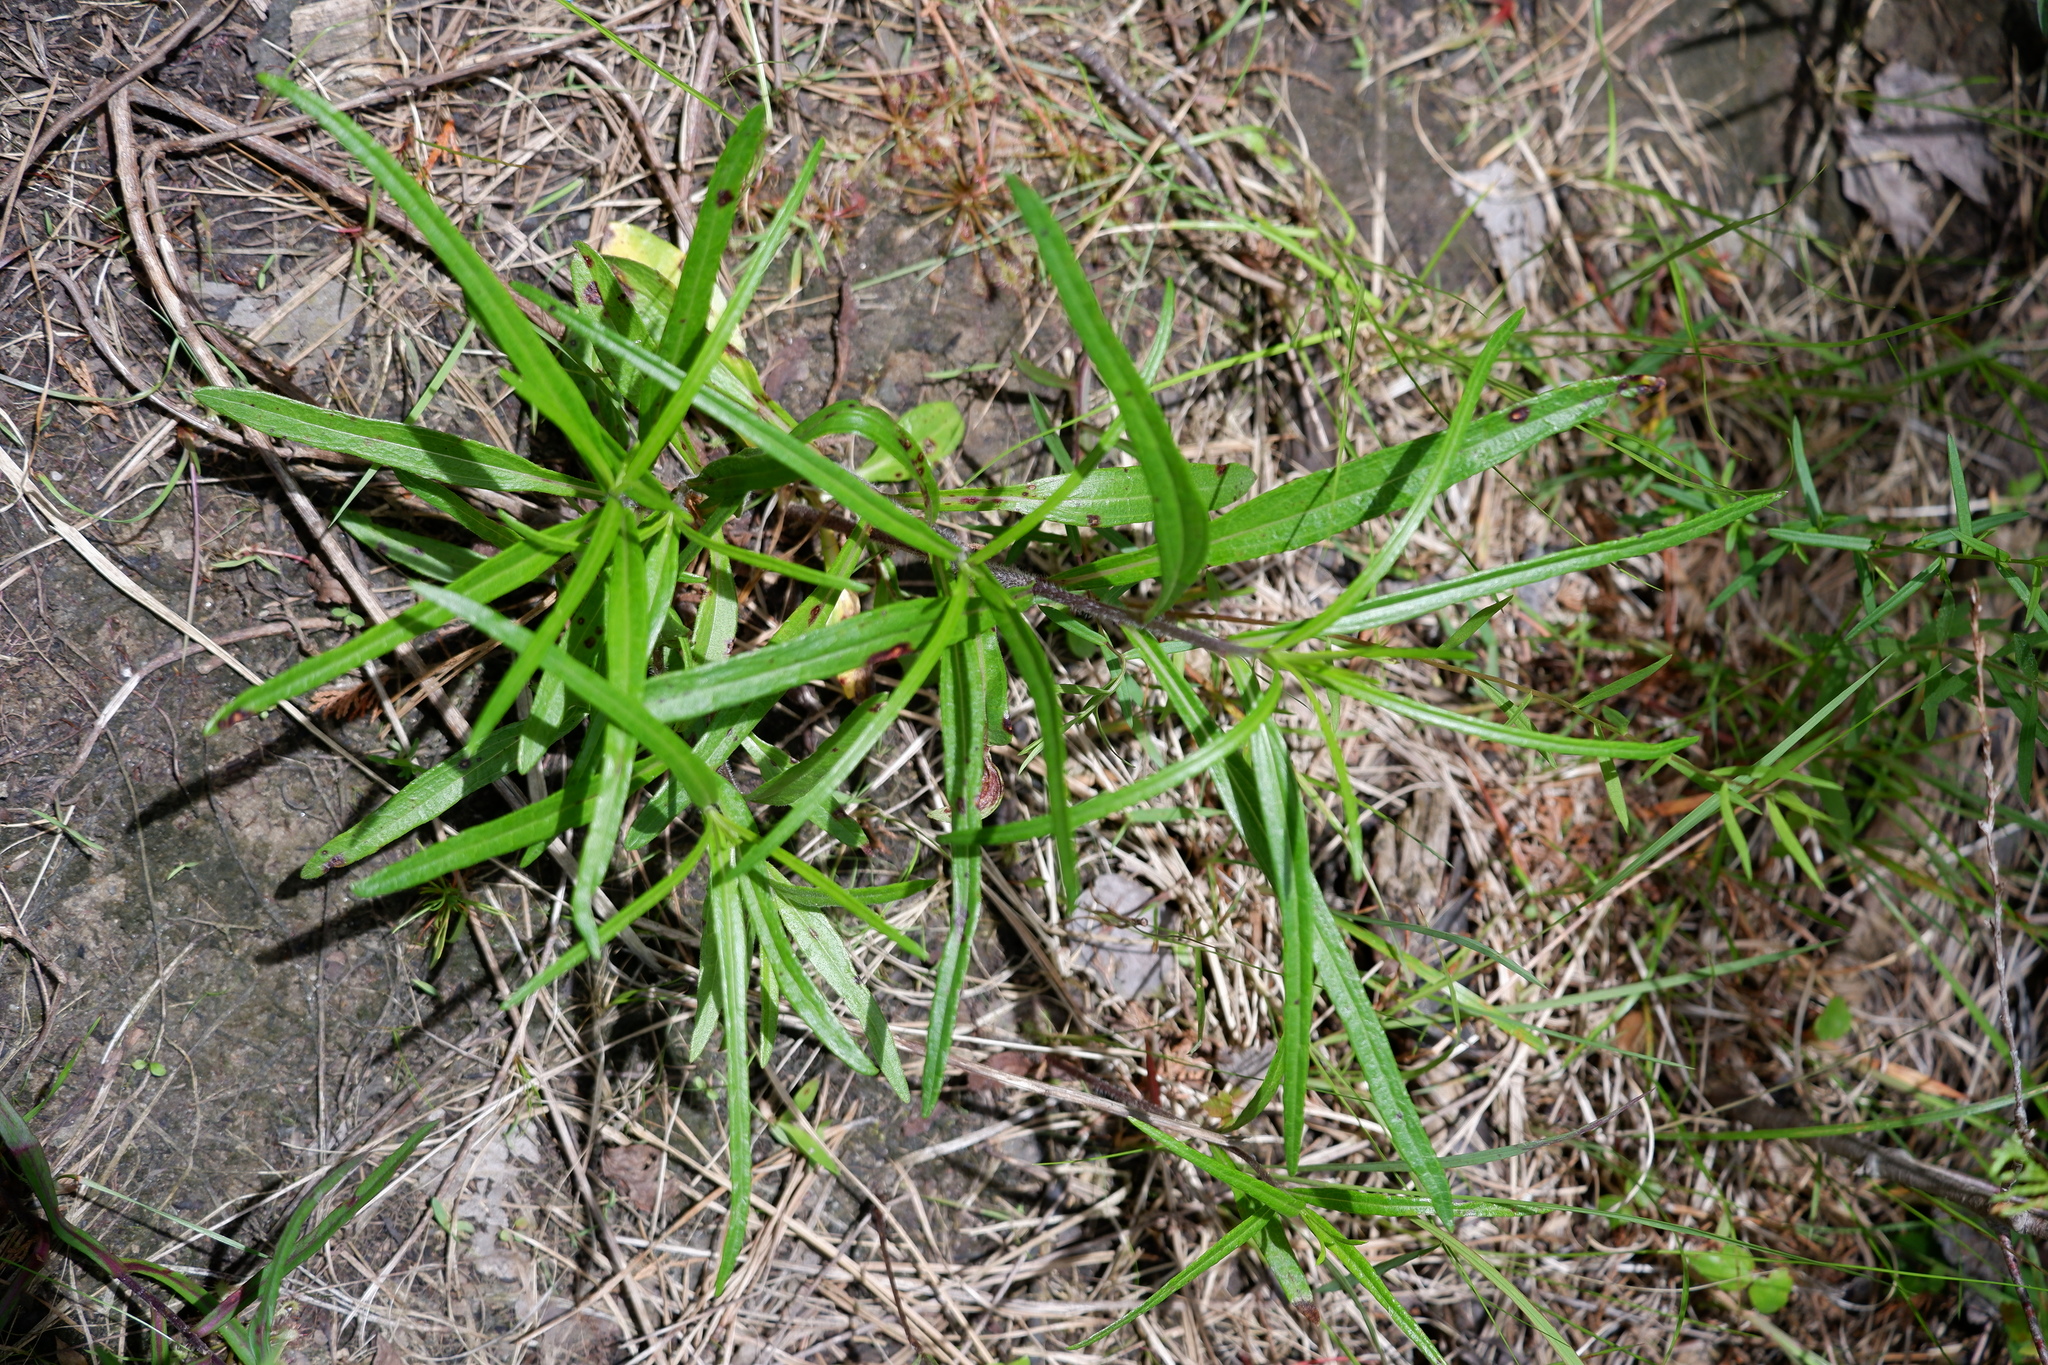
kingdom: Plantae
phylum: Tracheophyta
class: Magnoliopsida
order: Asterales
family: Asteraceae
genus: Helianthus
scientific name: Helianthus angustifolius
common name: Swamp sunflower
